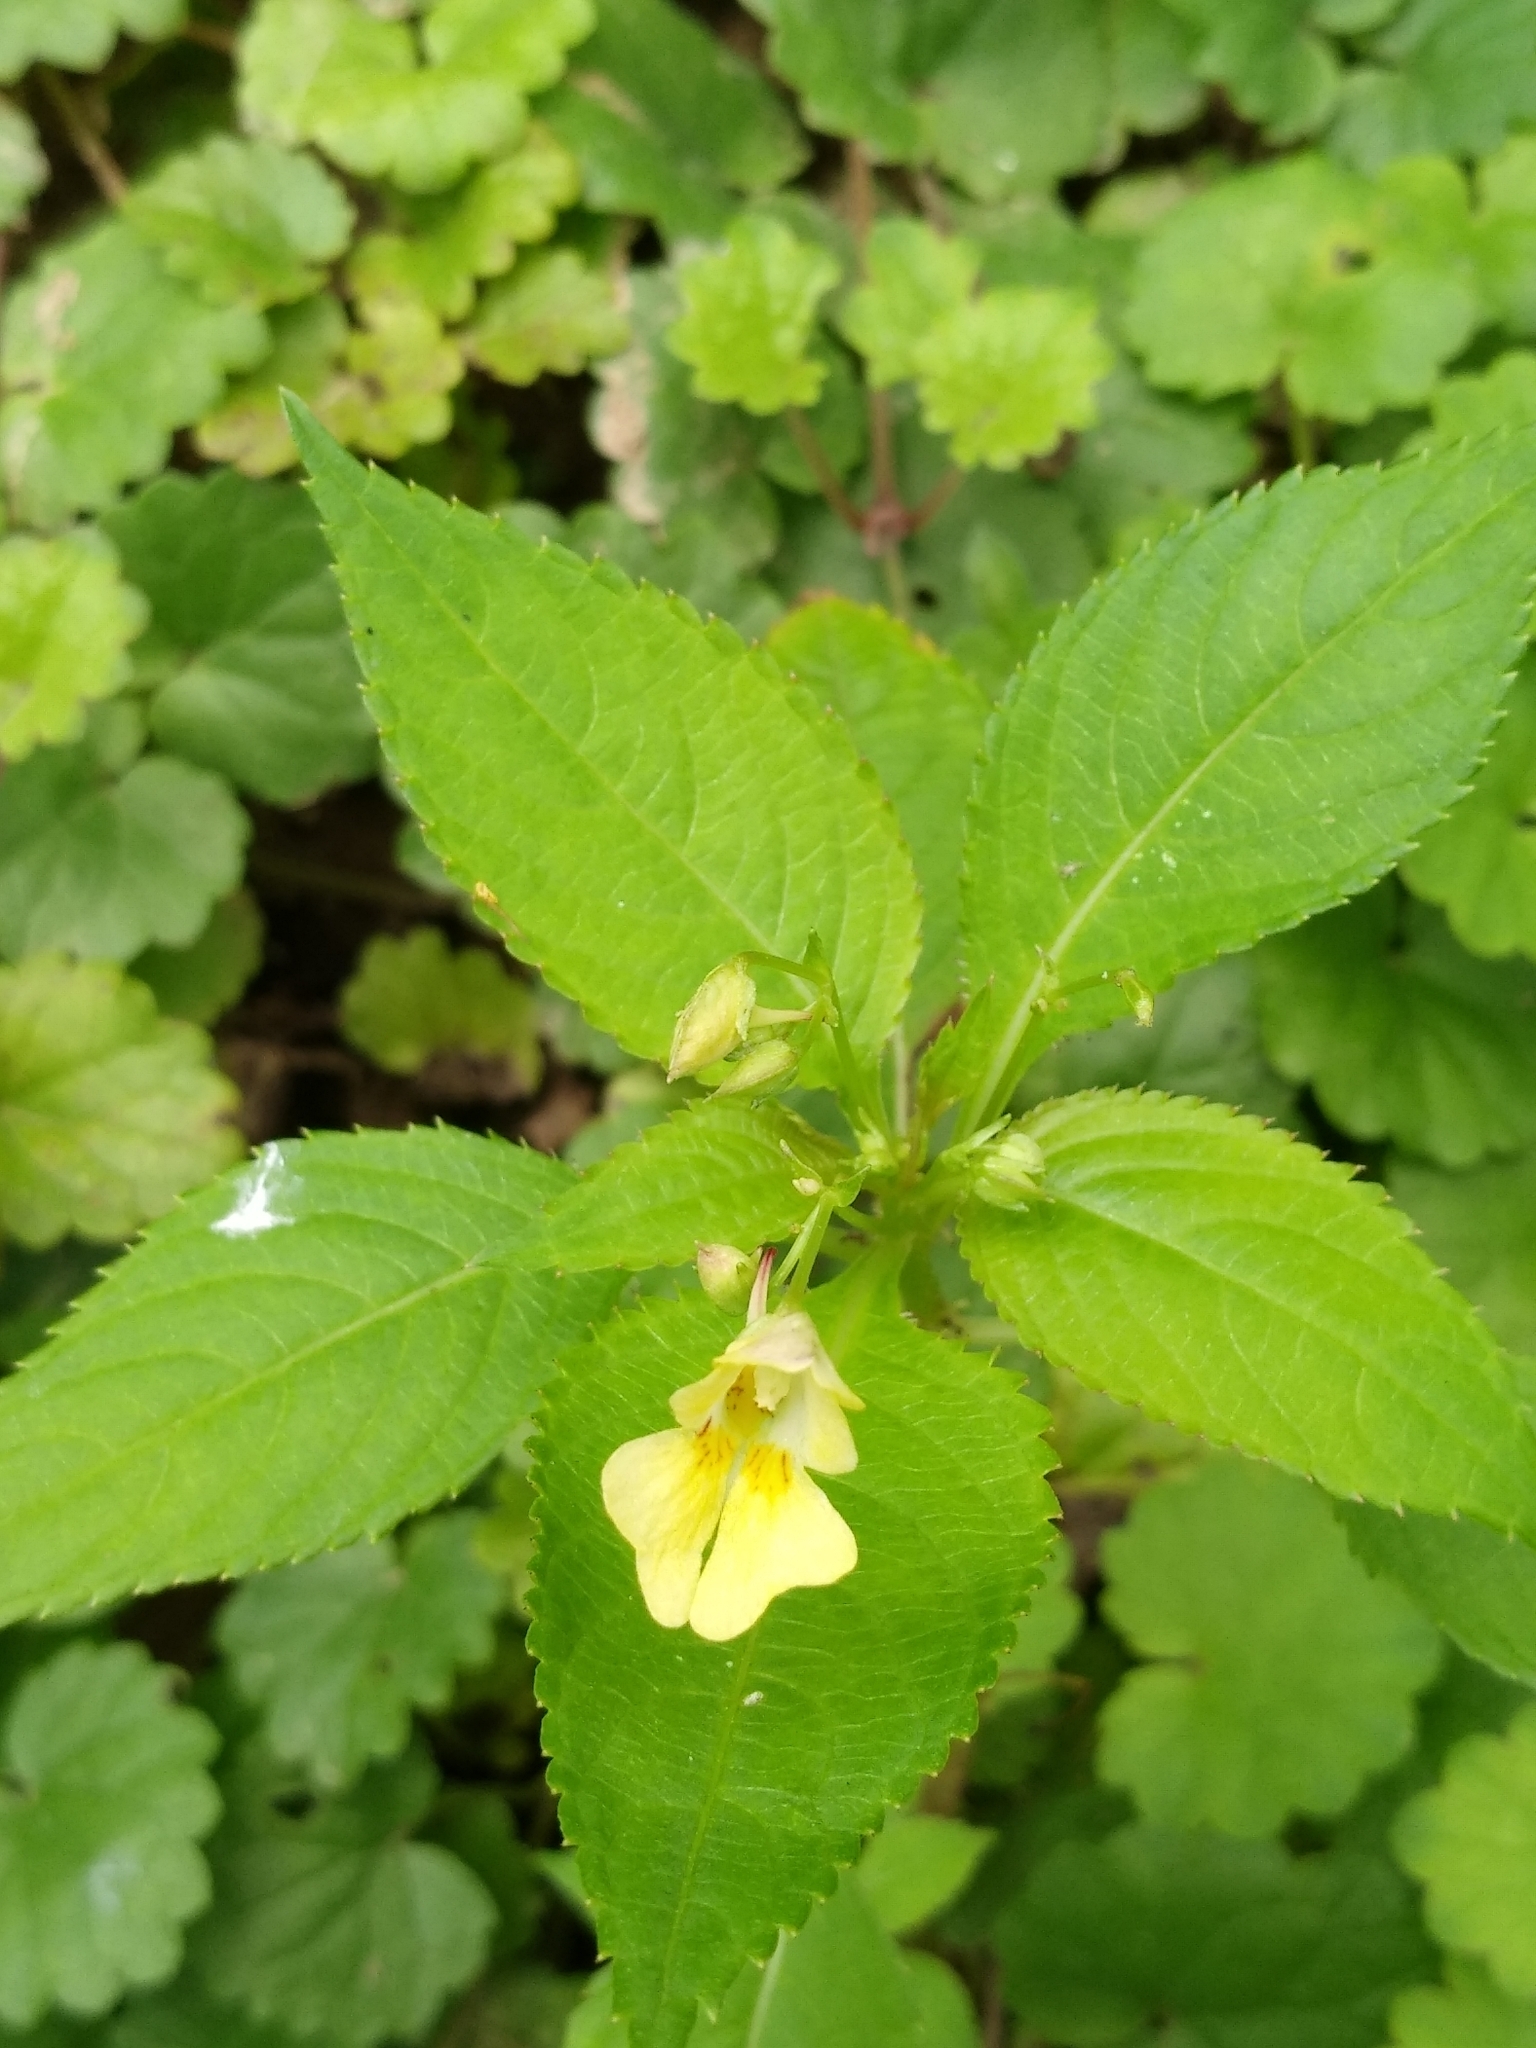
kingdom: Plantae
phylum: Tracheophyta
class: Magnoliopsida
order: Ericales
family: Balsaminaceae
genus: Impatiens
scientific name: Impatiens parviflora
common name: Small balsam
